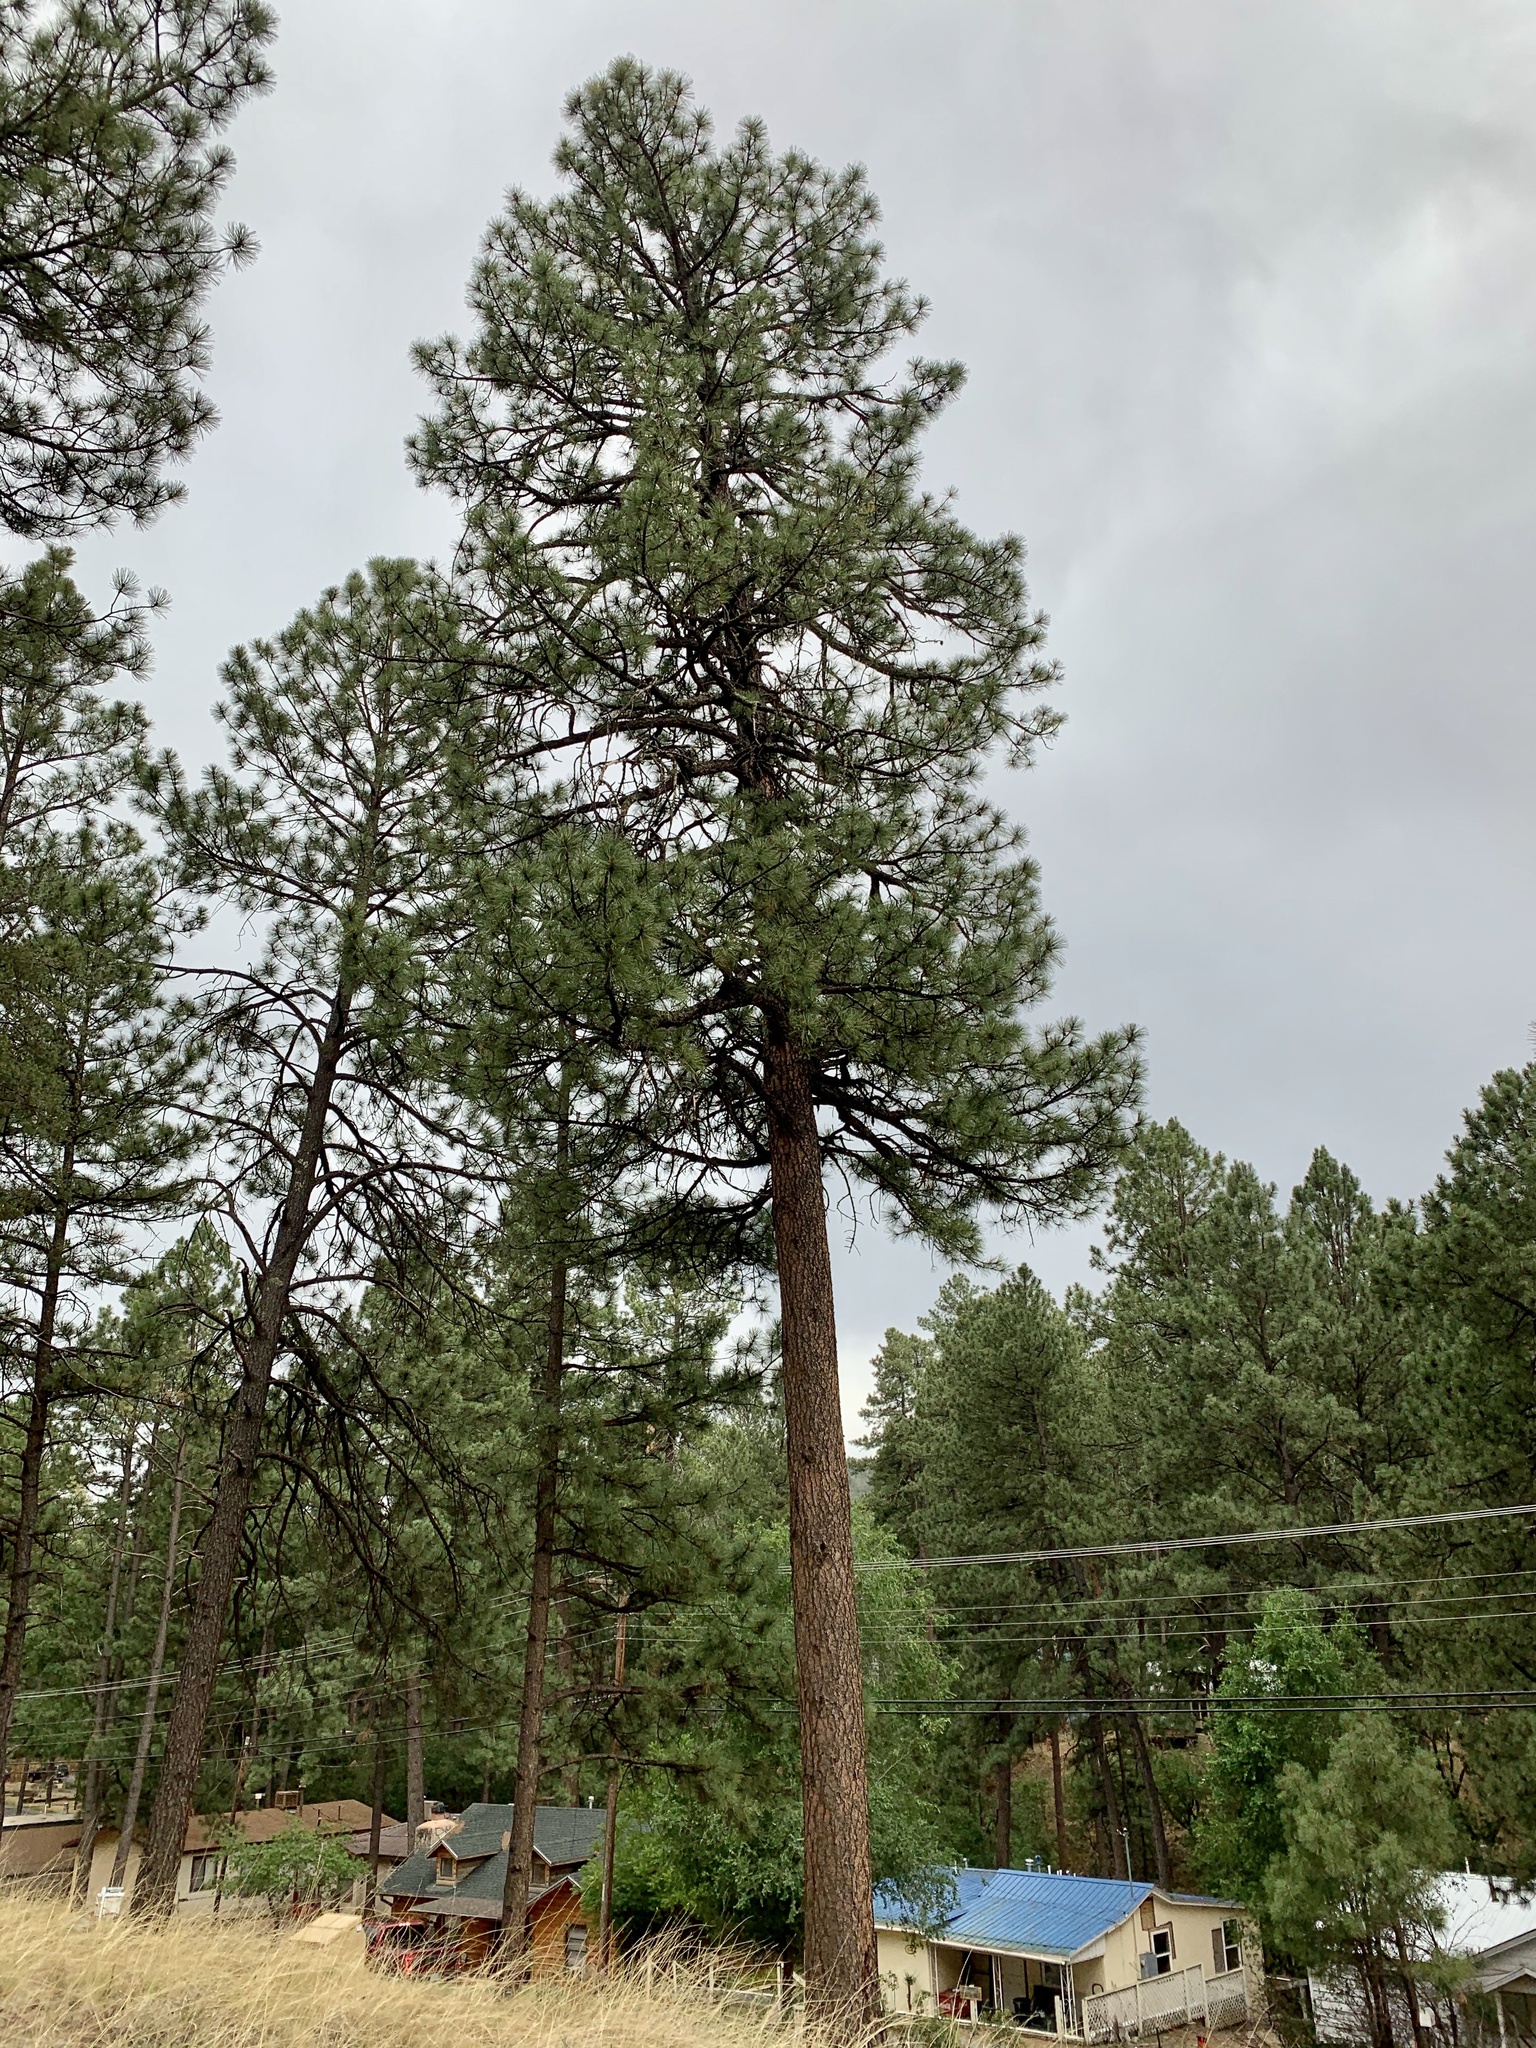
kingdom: Plantae
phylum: Tracheophyta
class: Pinopsida
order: Pinales
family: Pinaceae
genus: Pinus
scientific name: Pinus ponderosa
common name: Western yellow-pine
